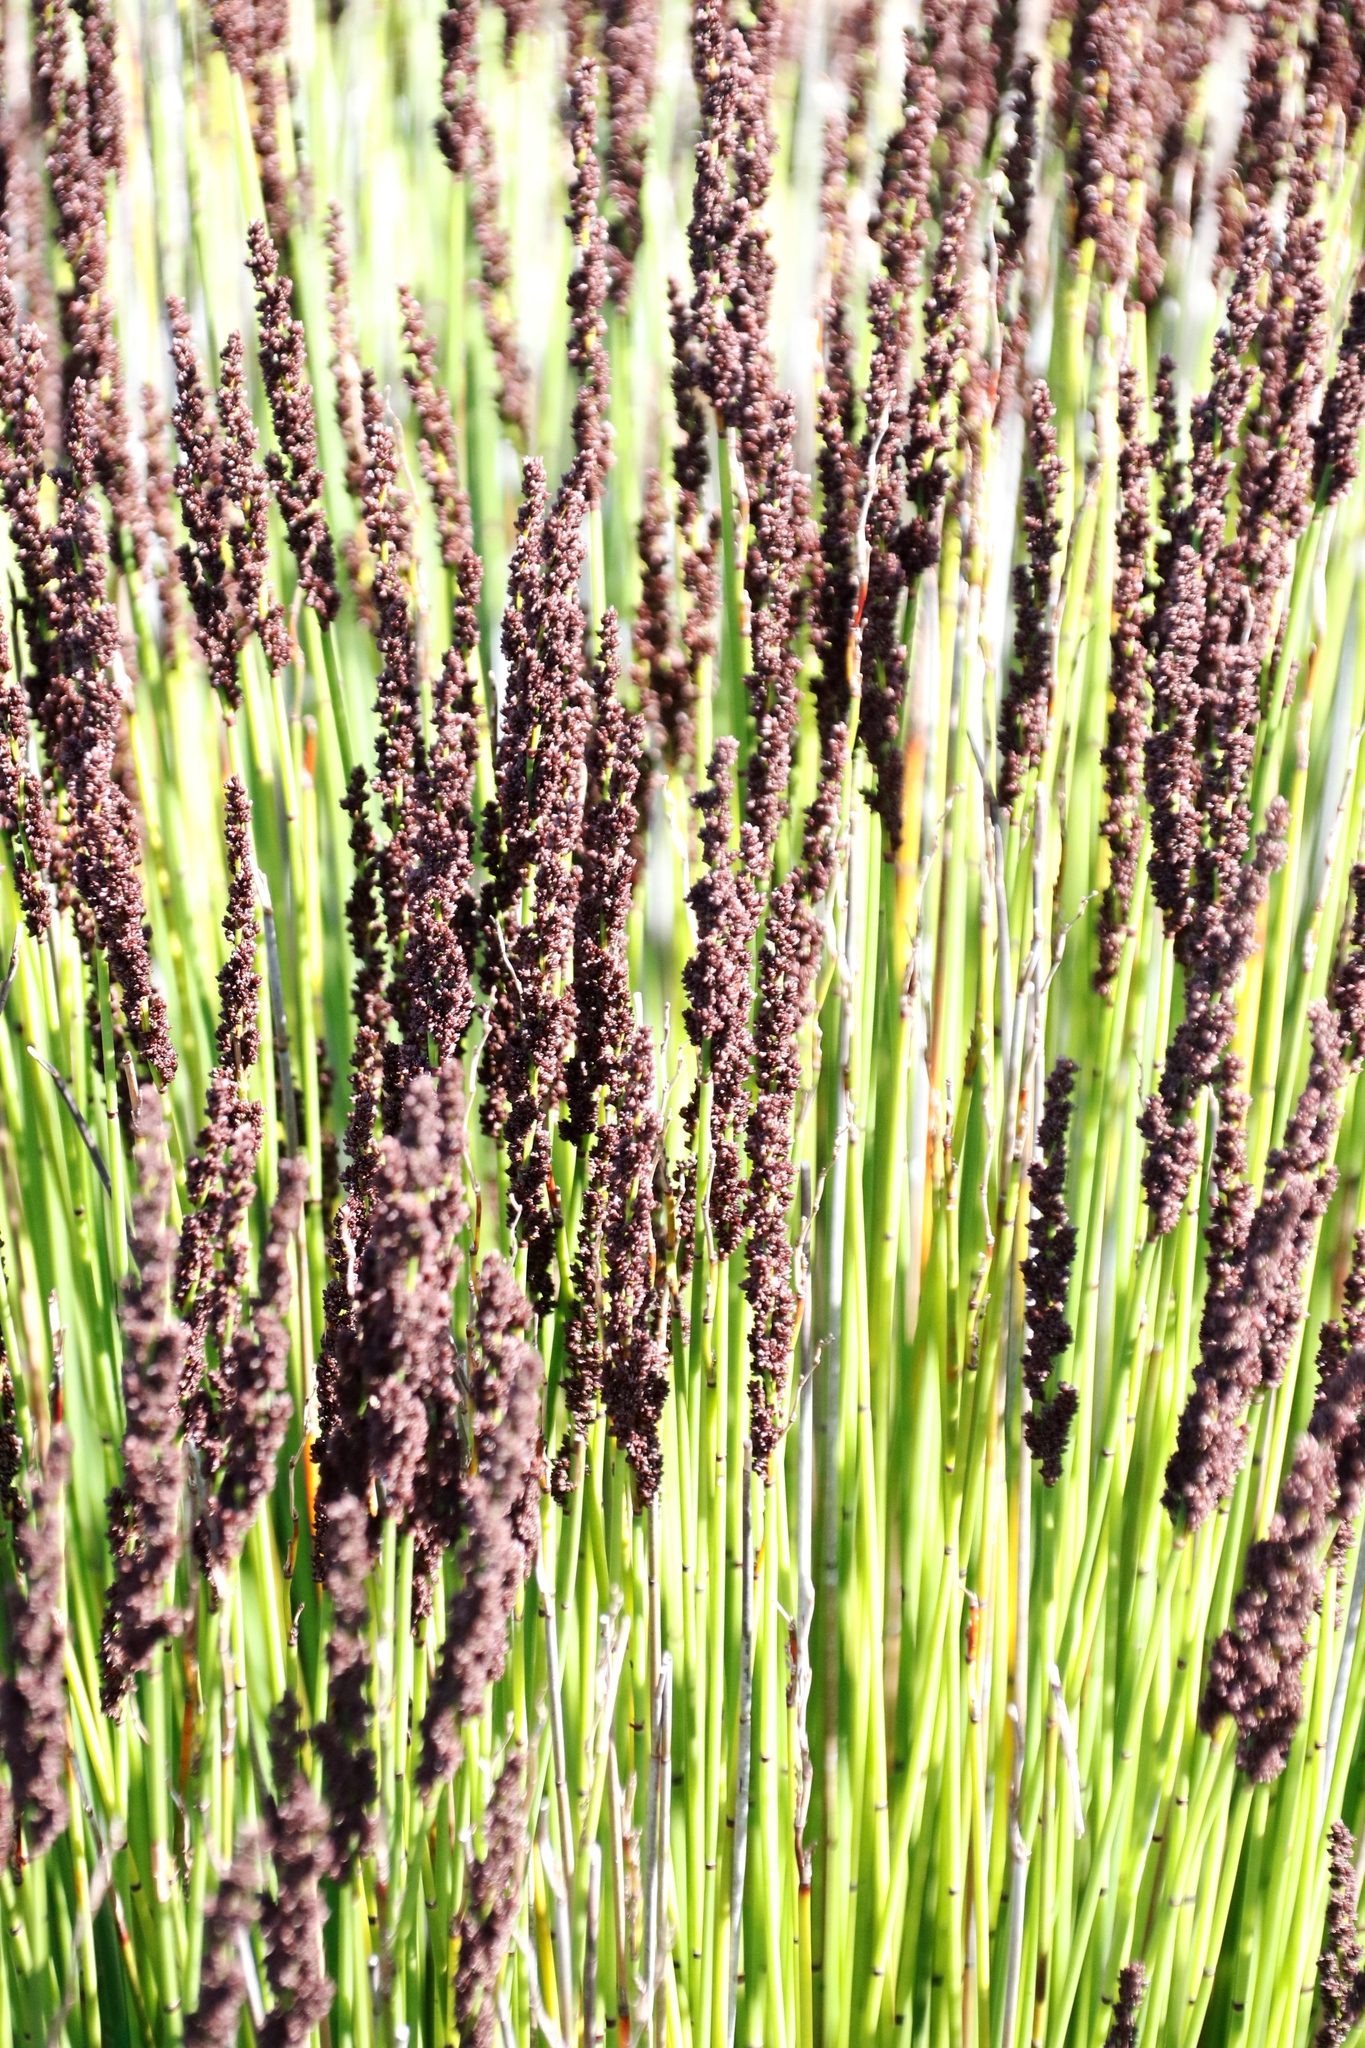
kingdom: Plantae
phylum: Tracheophyta
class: Liliopsida
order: Poales
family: Restionaceae
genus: Elegia
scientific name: Elegia tectorum
